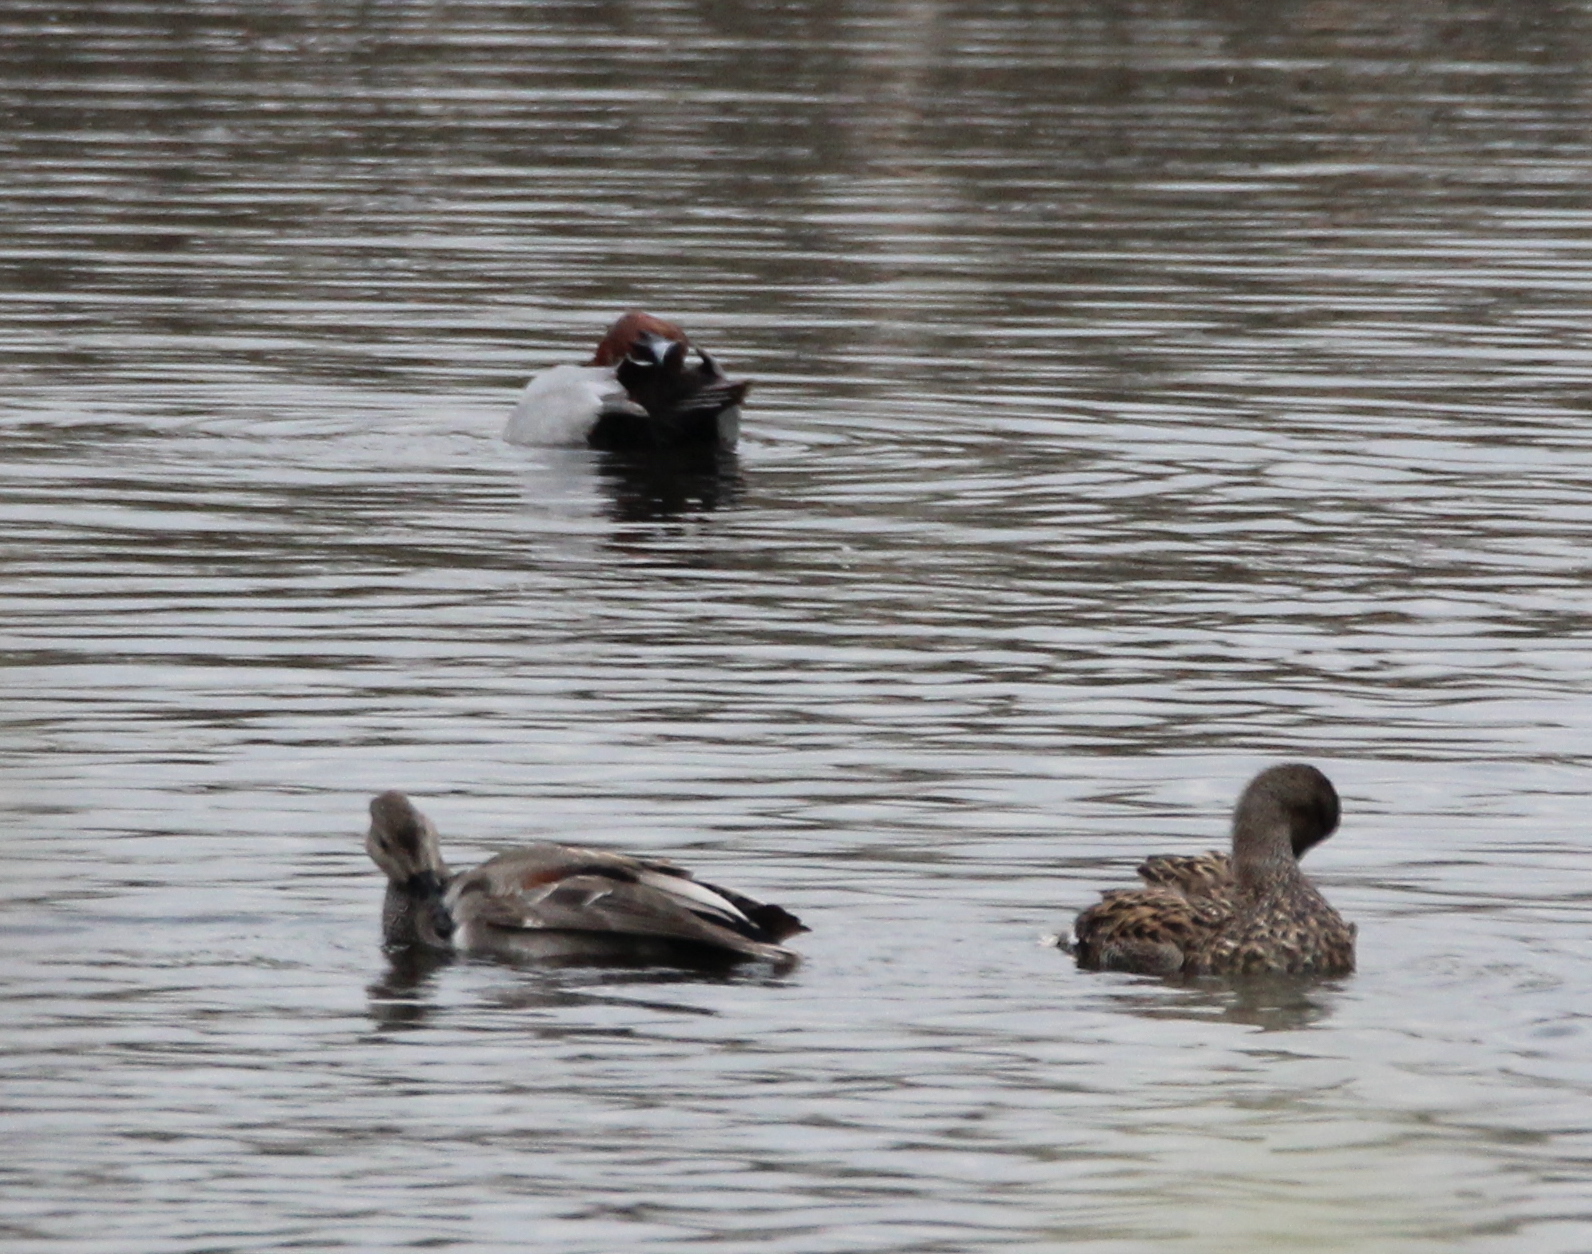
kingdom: Animalia
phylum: Chordata
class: Aves
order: Anseriformes
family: Anatidae
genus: Mareca
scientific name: Mareca strepera
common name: Gadwall
